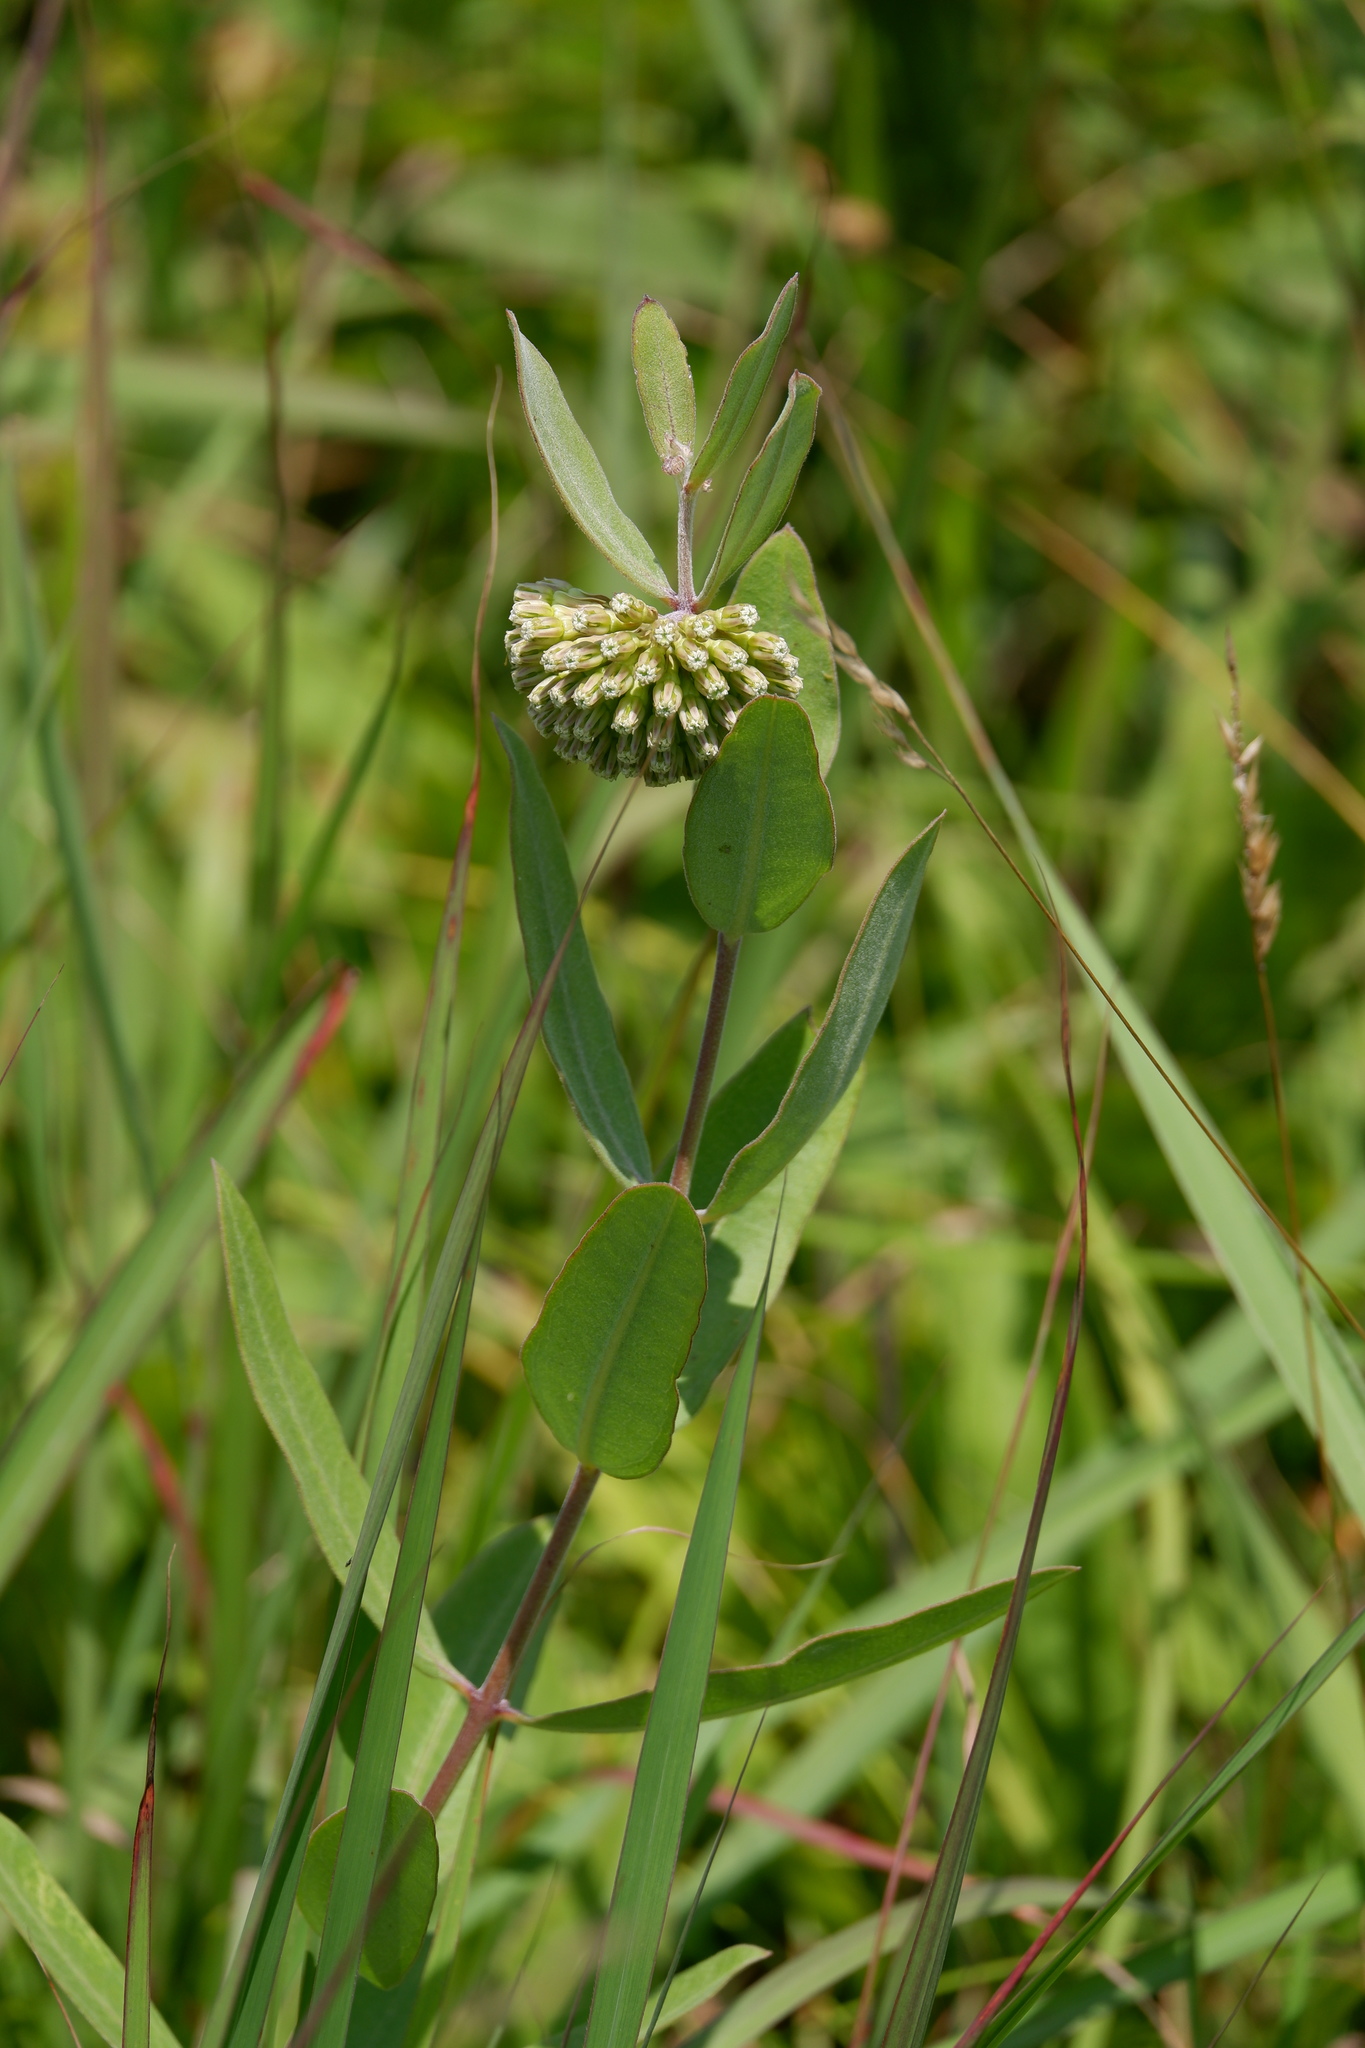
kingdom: Plantae
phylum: Tracheophyta
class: Magnoliopsida
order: Gentianales
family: Apocynaceae
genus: Asclepias
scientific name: Asclepias viridiflora
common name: Green comet milkweed
